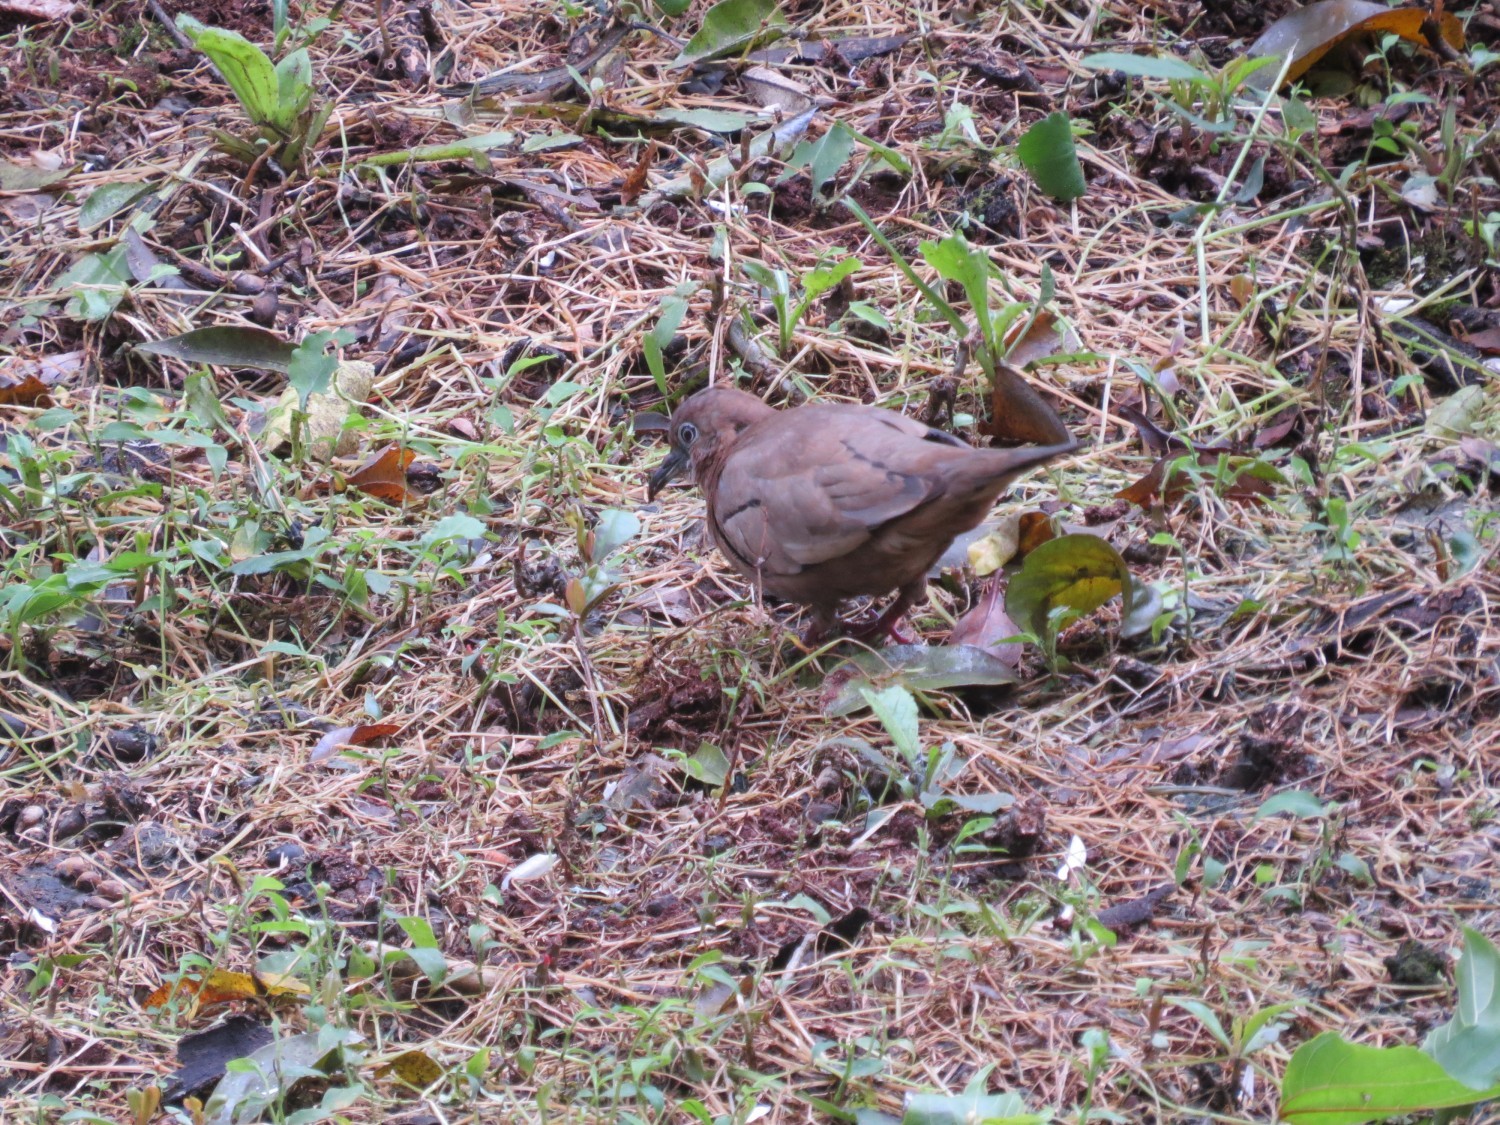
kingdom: Animalia
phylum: Chordata
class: Aves
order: Columbiformes
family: Columbidae
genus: Columbina
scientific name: Columbina talpacoti
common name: Ruddy ground dove
